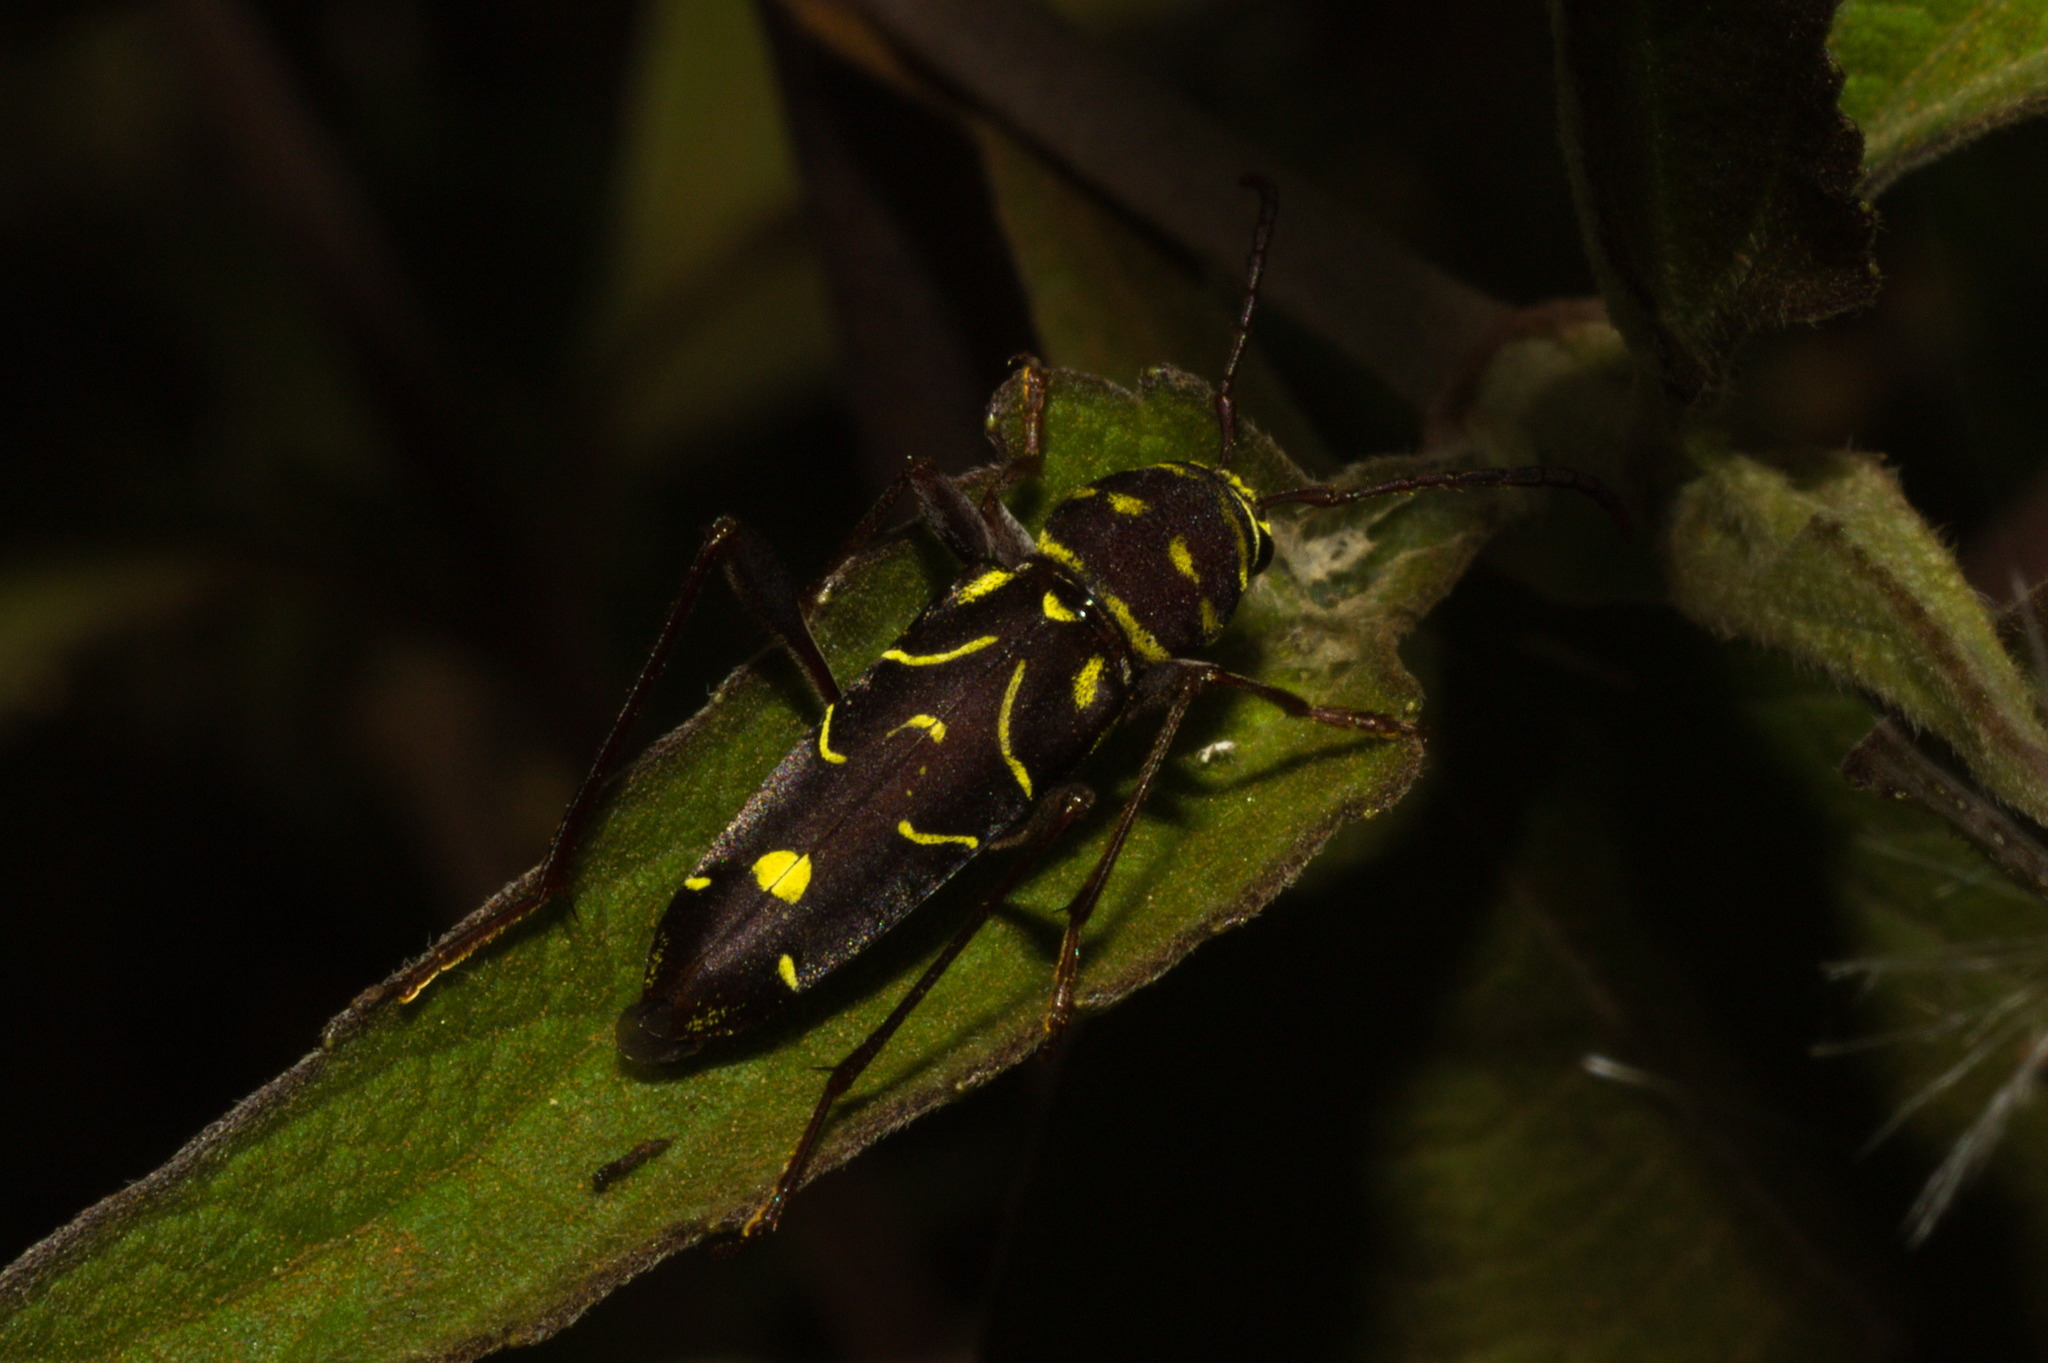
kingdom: Animalia
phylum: Arthropoda
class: Insecta
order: Coleoptera
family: Cerambycidae
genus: Cotyclytus
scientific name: Cotyclytus curvatus
